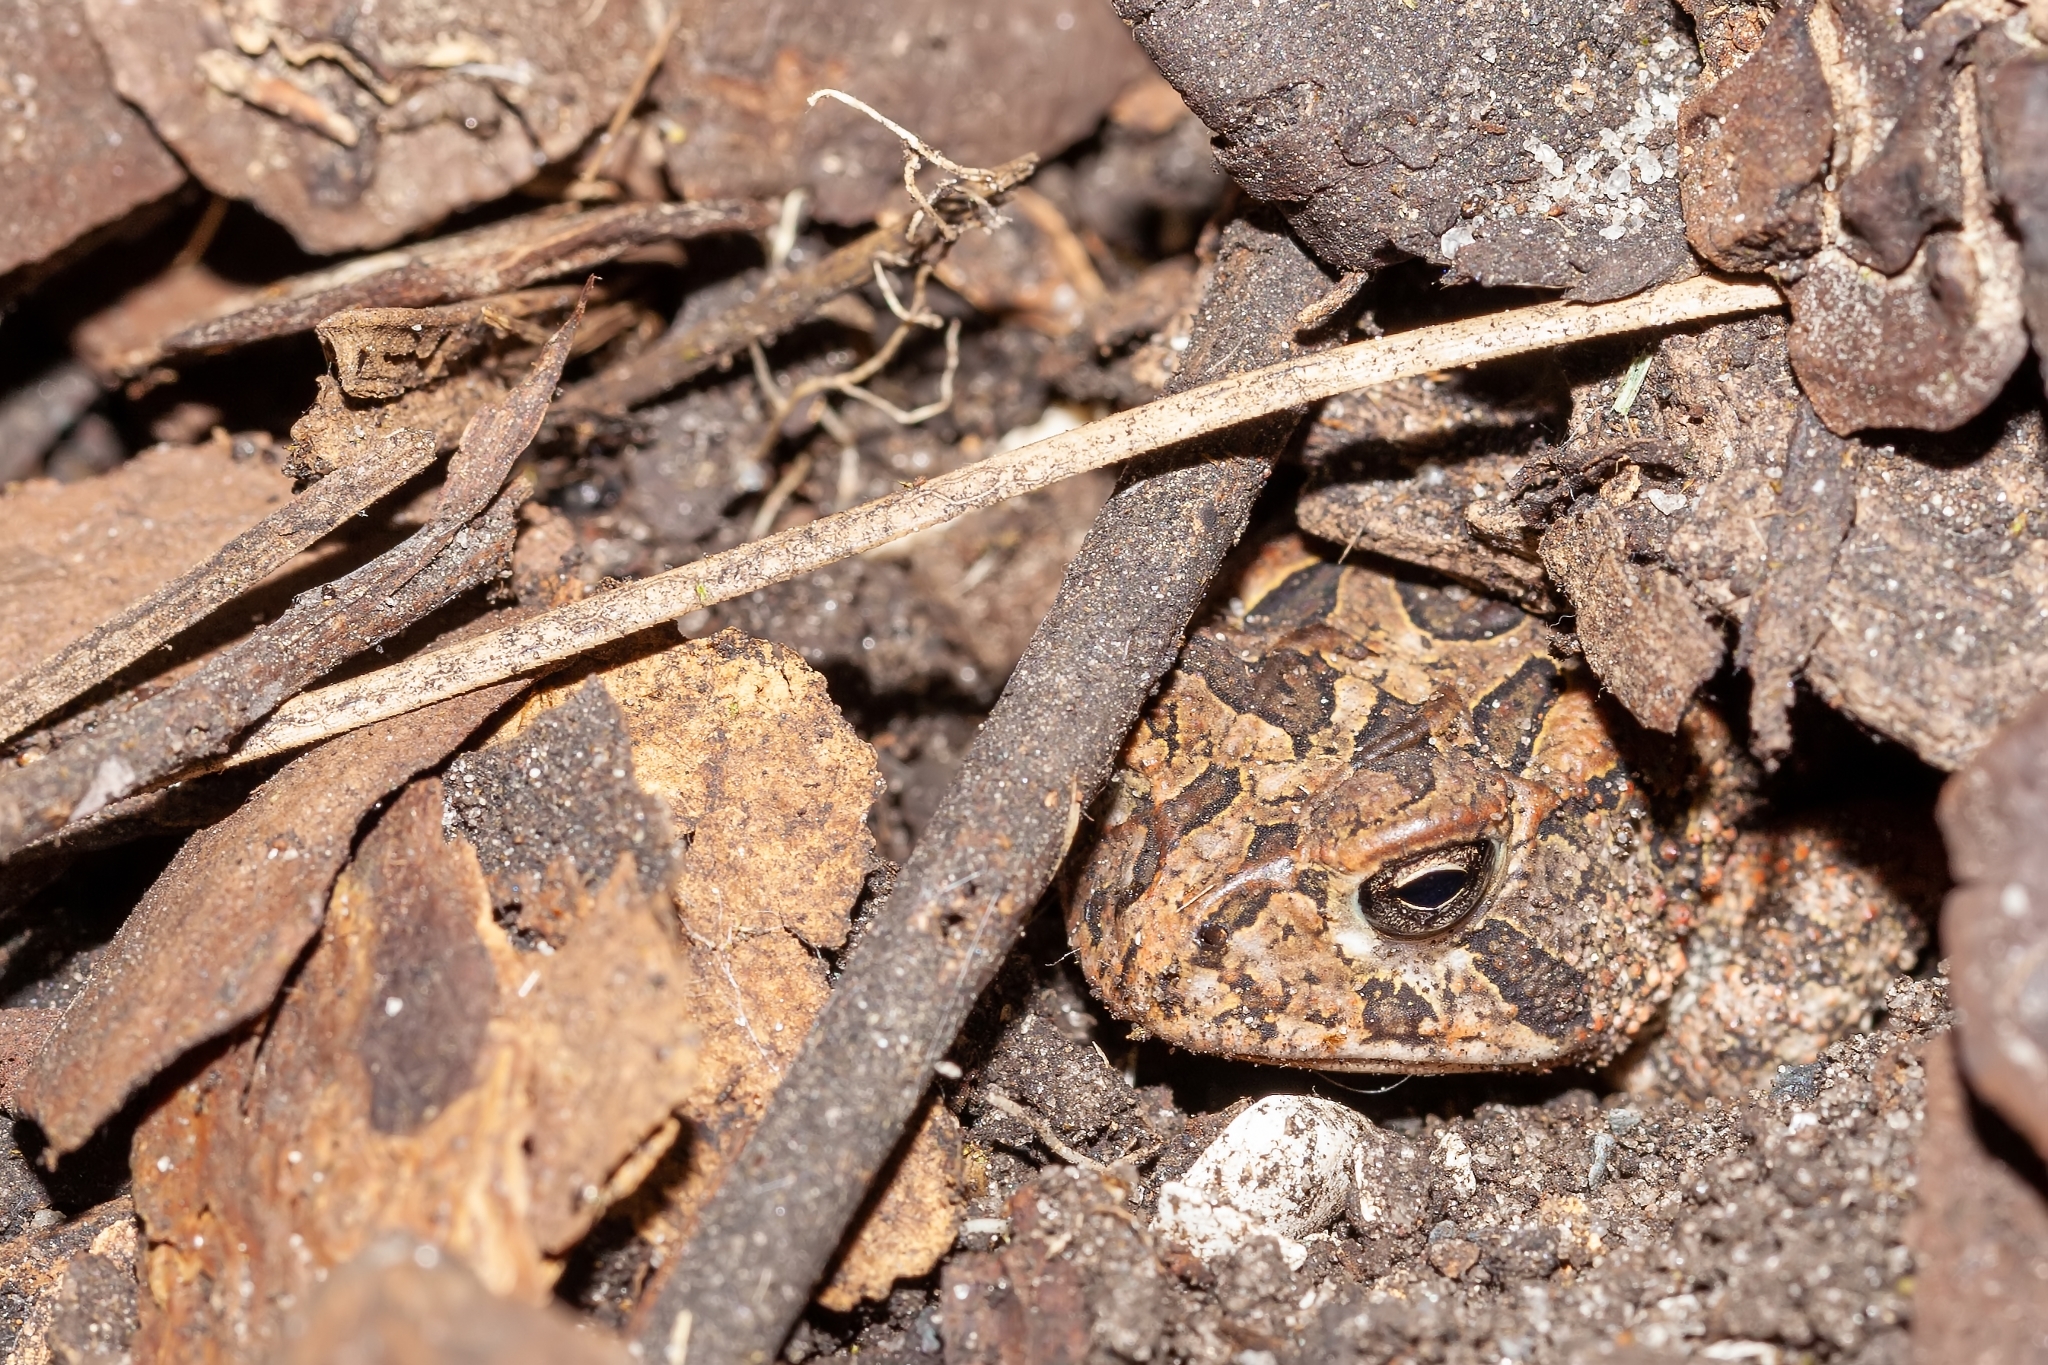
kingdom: Animalia
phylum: Chordata
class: Amphibia
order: Anura
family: Bufonidae
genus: Anaxyrus
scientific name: Anaxyrus terrestris
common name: Southern toad
